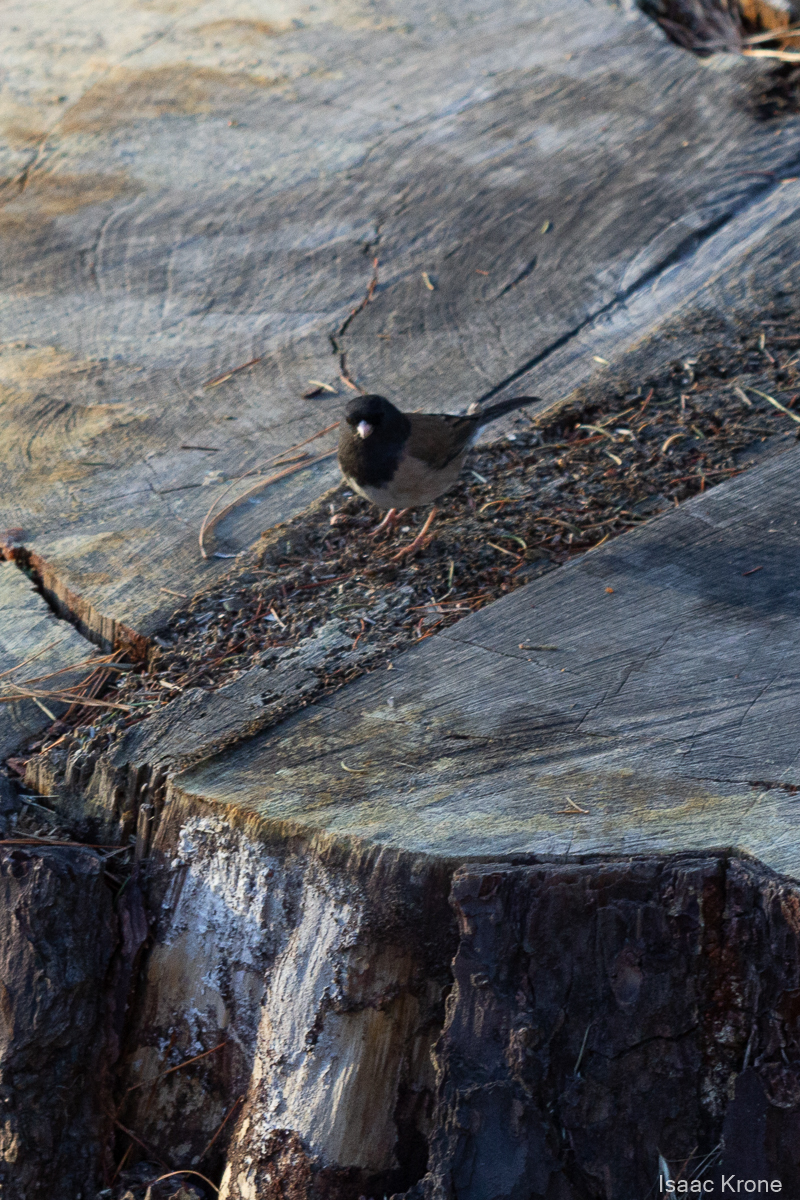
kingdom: Animalia
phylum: Chordata
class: Aves
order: Passeriformes
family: Passerellidae
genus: Junco
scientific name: Junco hyemalis
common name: Dark-eyed junco
